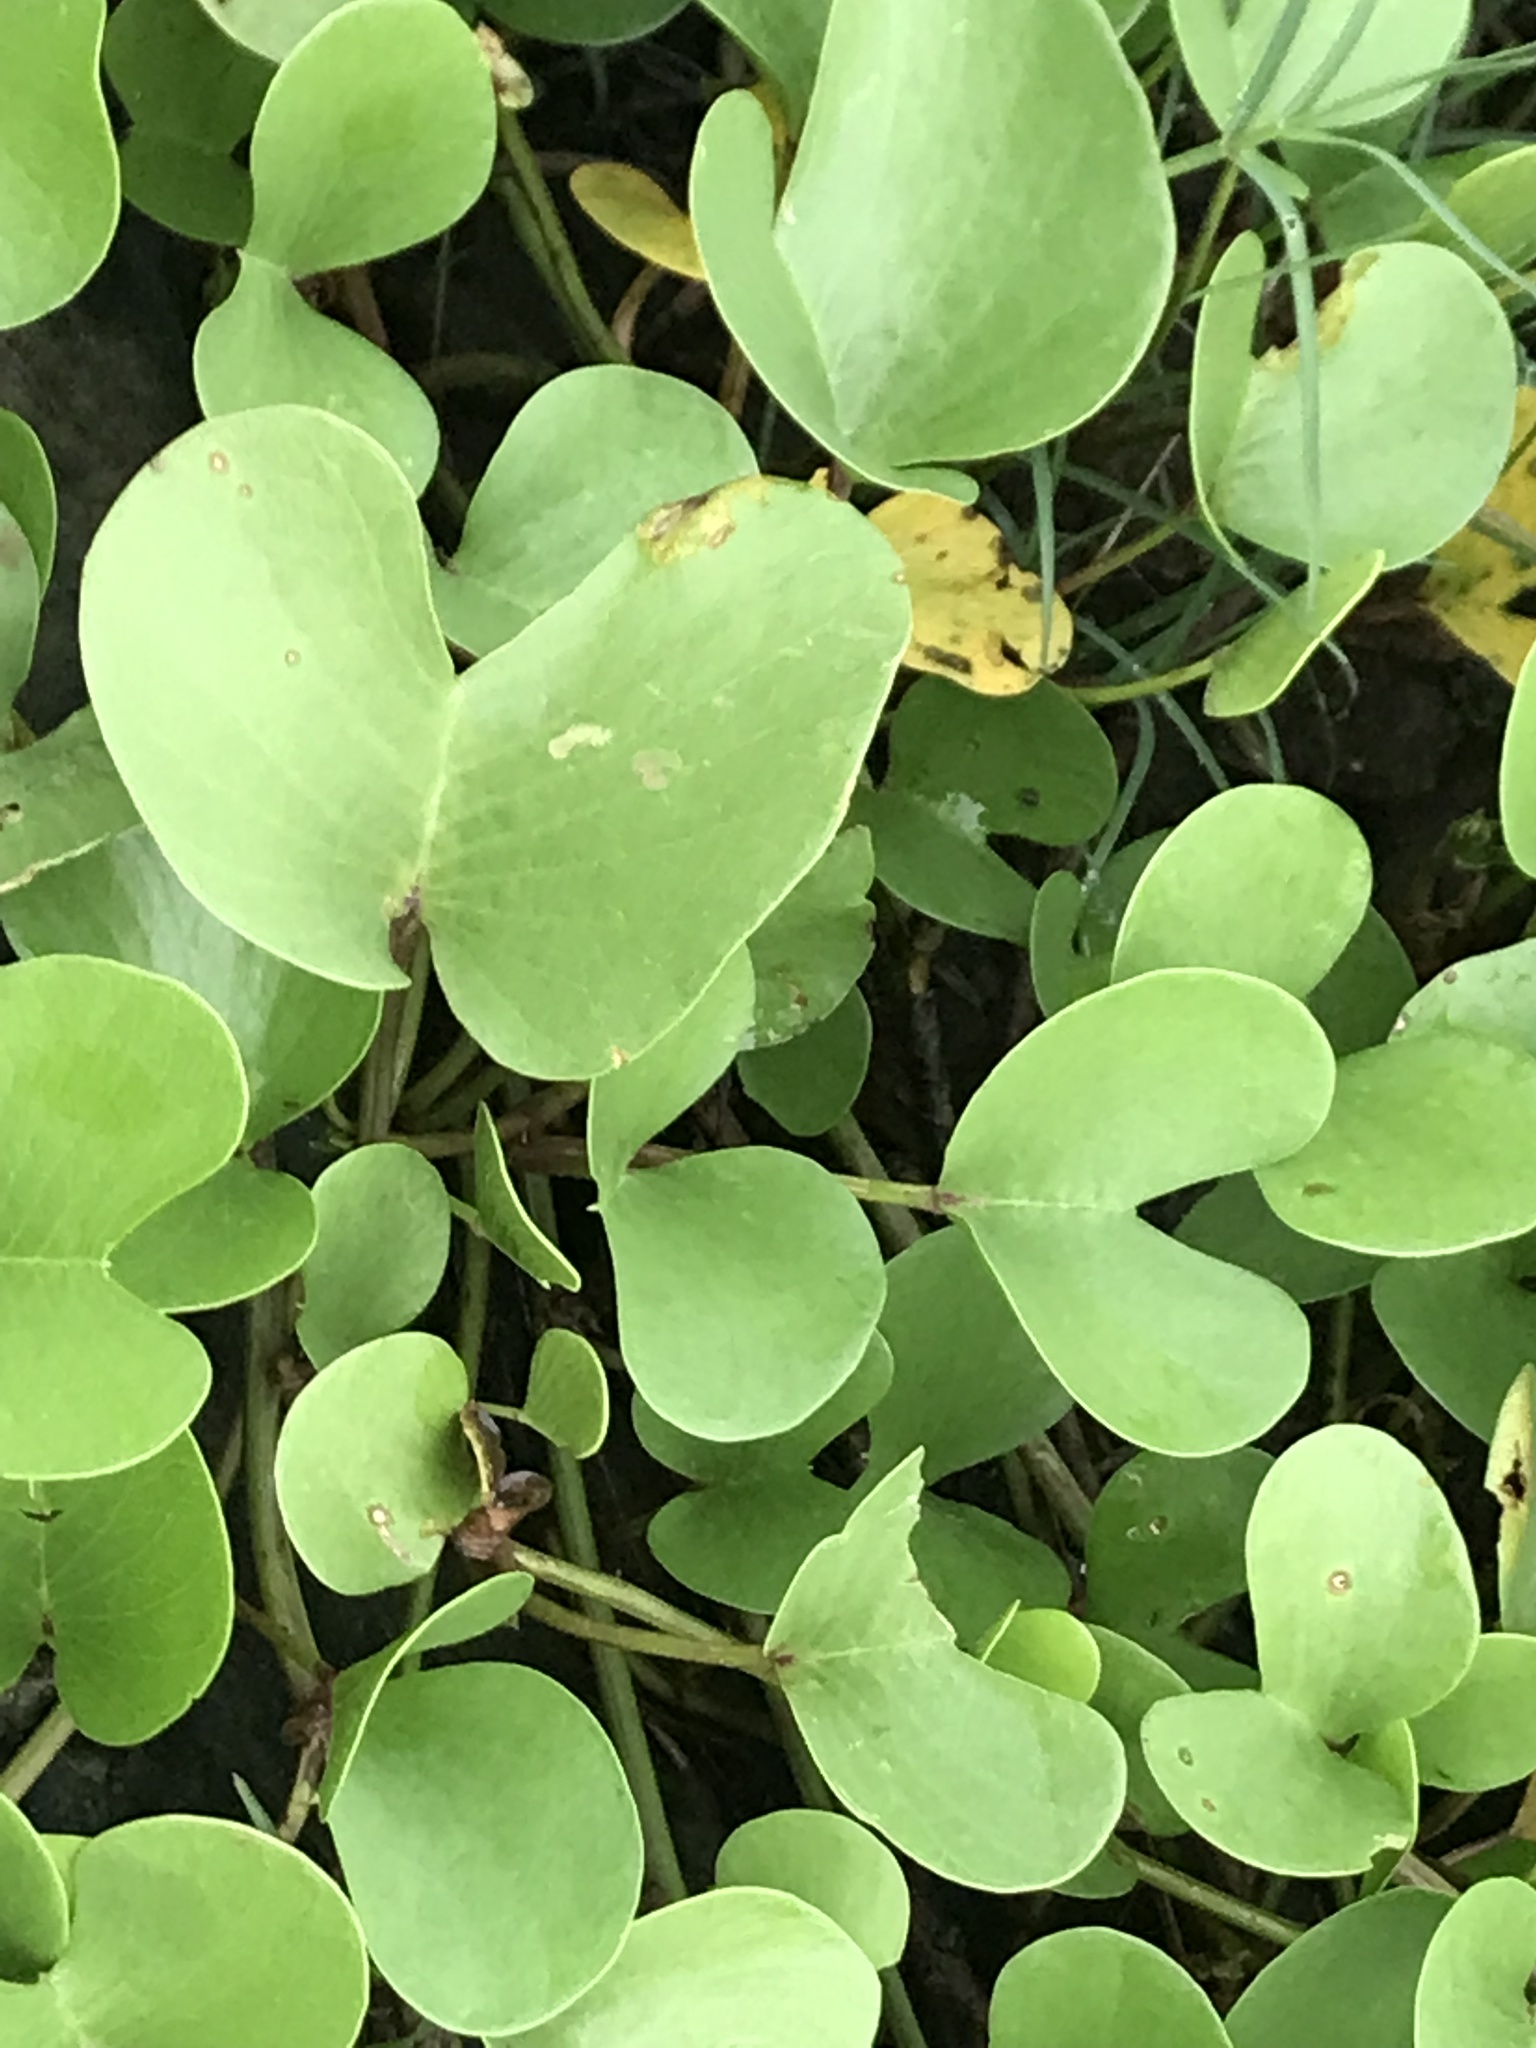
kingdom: Plantae
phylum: Tracheophyta
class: Magnoliopsida
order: Solanales
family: Convolvulaceae
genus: Ipomoea
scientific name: Ipomoea pes-caprae
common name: Beach morning glory
